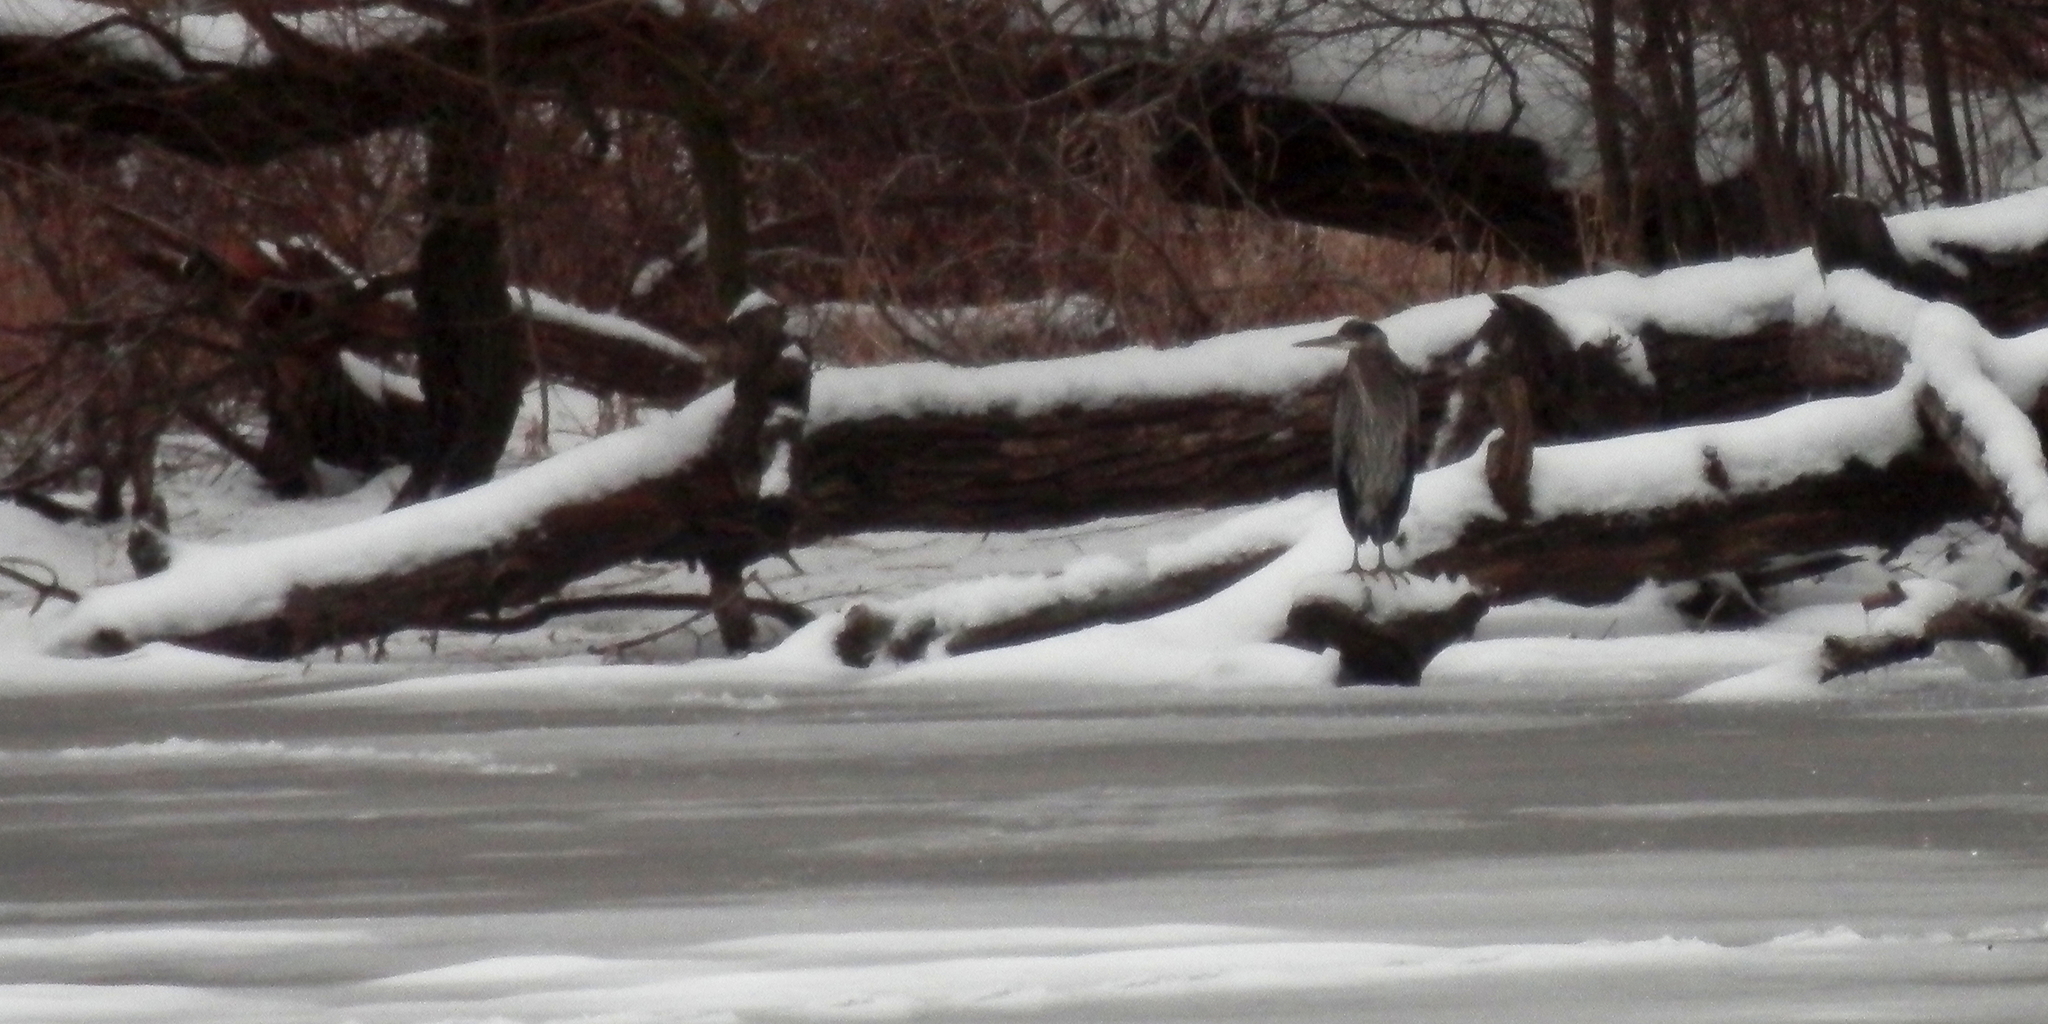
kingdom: Animalia
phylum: Chordata
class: Aves
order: Pelecaniformes
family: Ardeidae
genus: Ardea
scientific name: Ardea herodias
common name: Great blue heron
